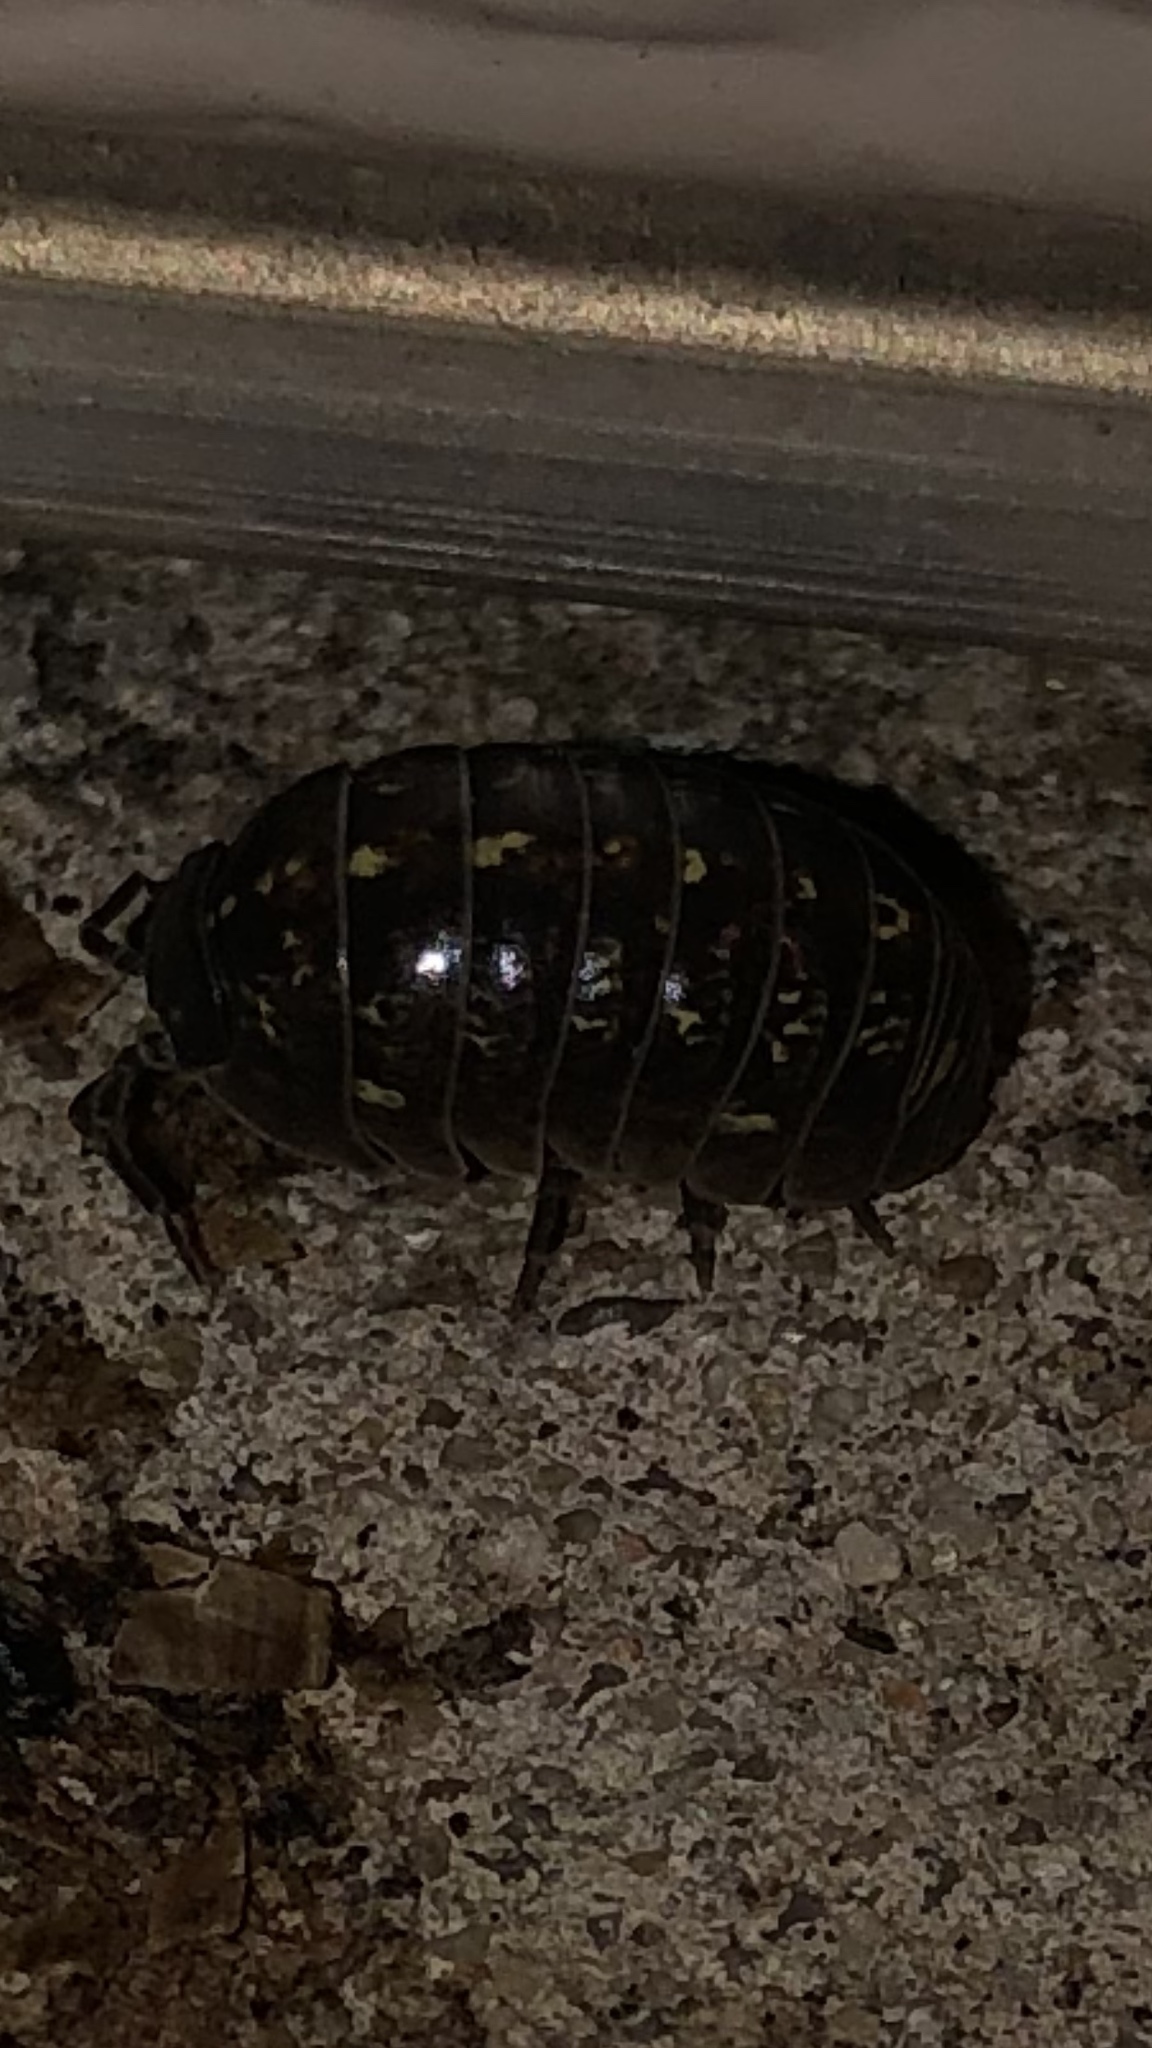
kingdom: Animalia
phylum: Arthropoda
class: Malacostraca
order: Isopoda
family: Armadillidiidae
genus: Armadillidium
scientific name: Armadillidium vulgare
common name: Common pill woodlouse
